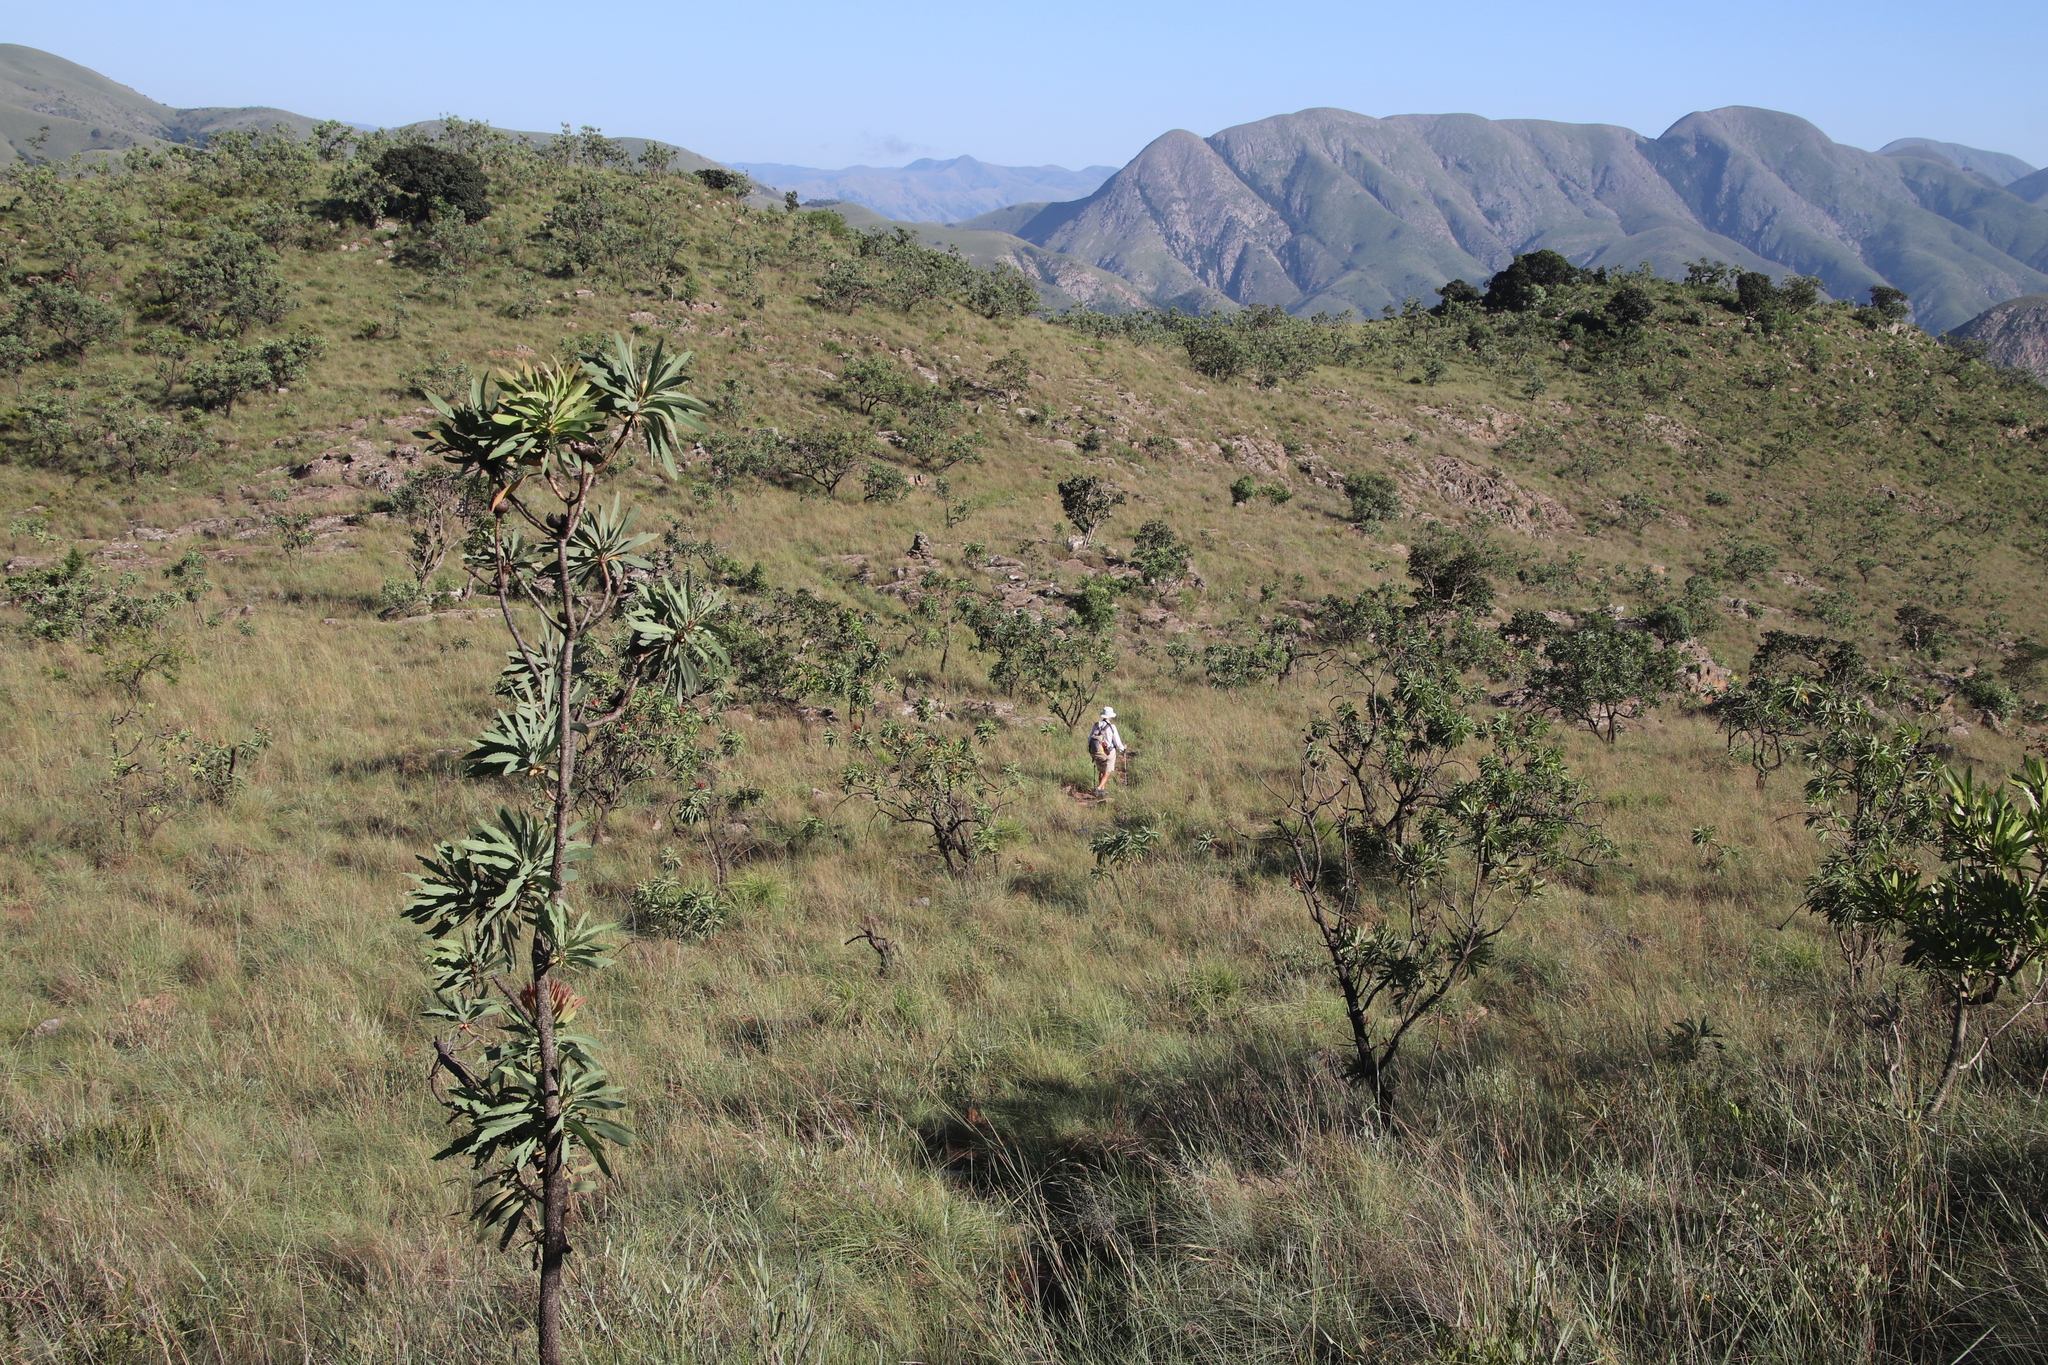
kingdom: Plantae
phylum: Tracheophyta
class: Magnoliopsida
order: Proteales
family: Proteaceae
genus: Protea
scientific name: Protea caffra
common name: Common sugarbush
